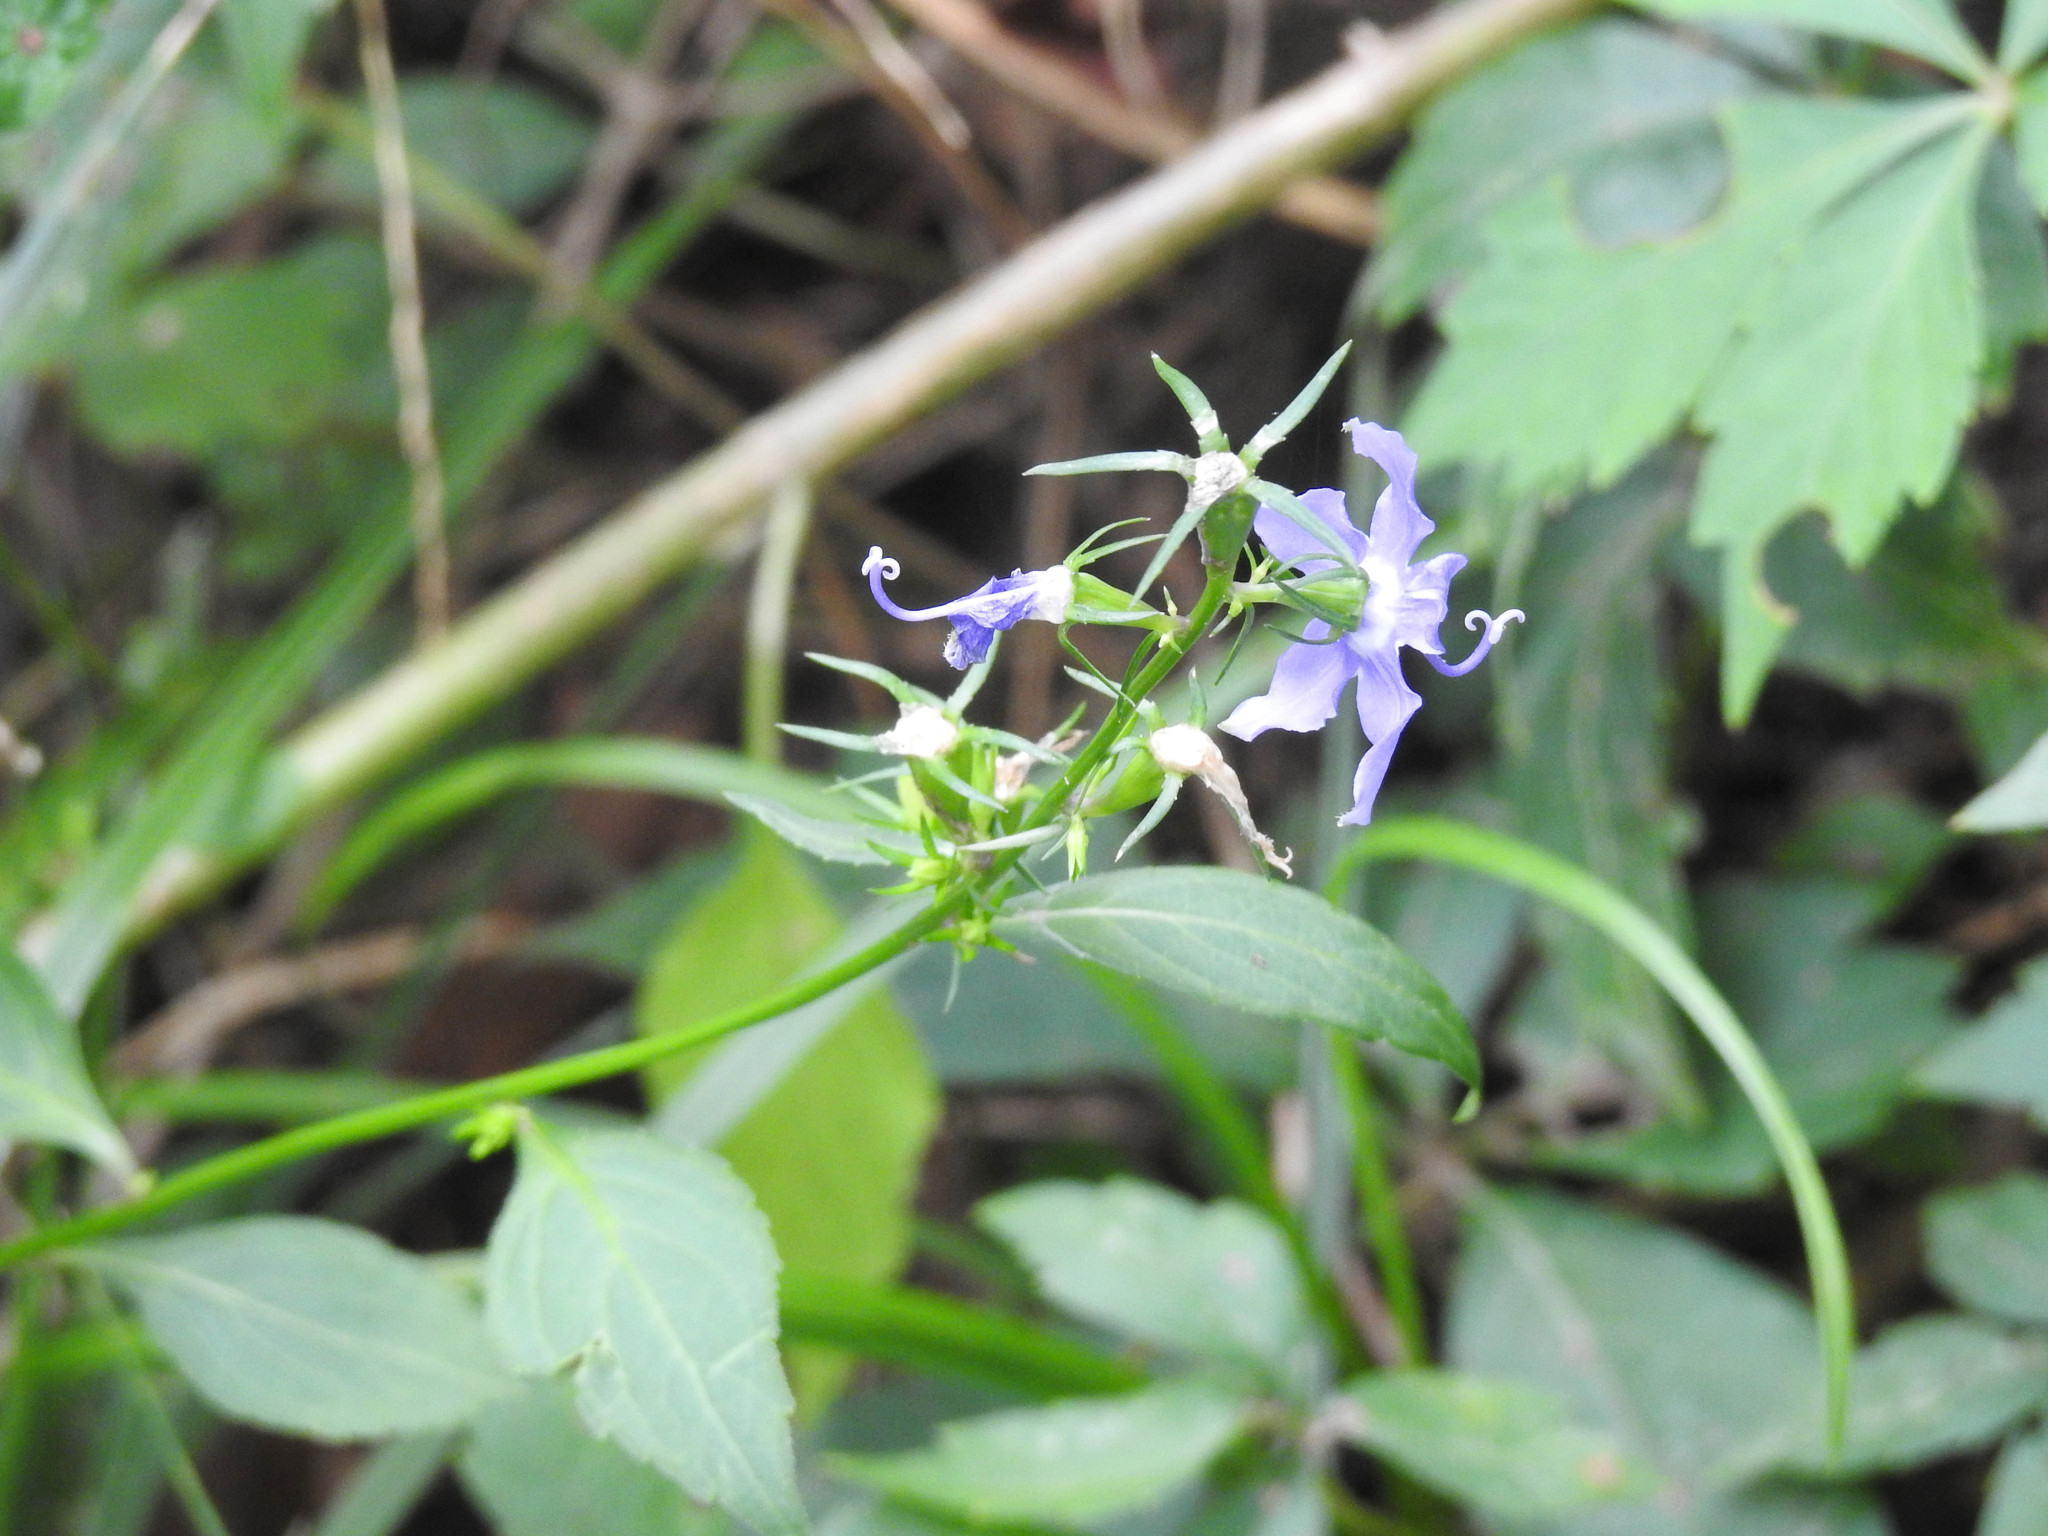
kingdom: Plantae
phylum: Tracheophyta
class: Magnoliopsida
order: Asterales
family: Campanulaceae
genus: Campanulastrum
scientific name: Campanulastrum americanum
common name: American bellflower
